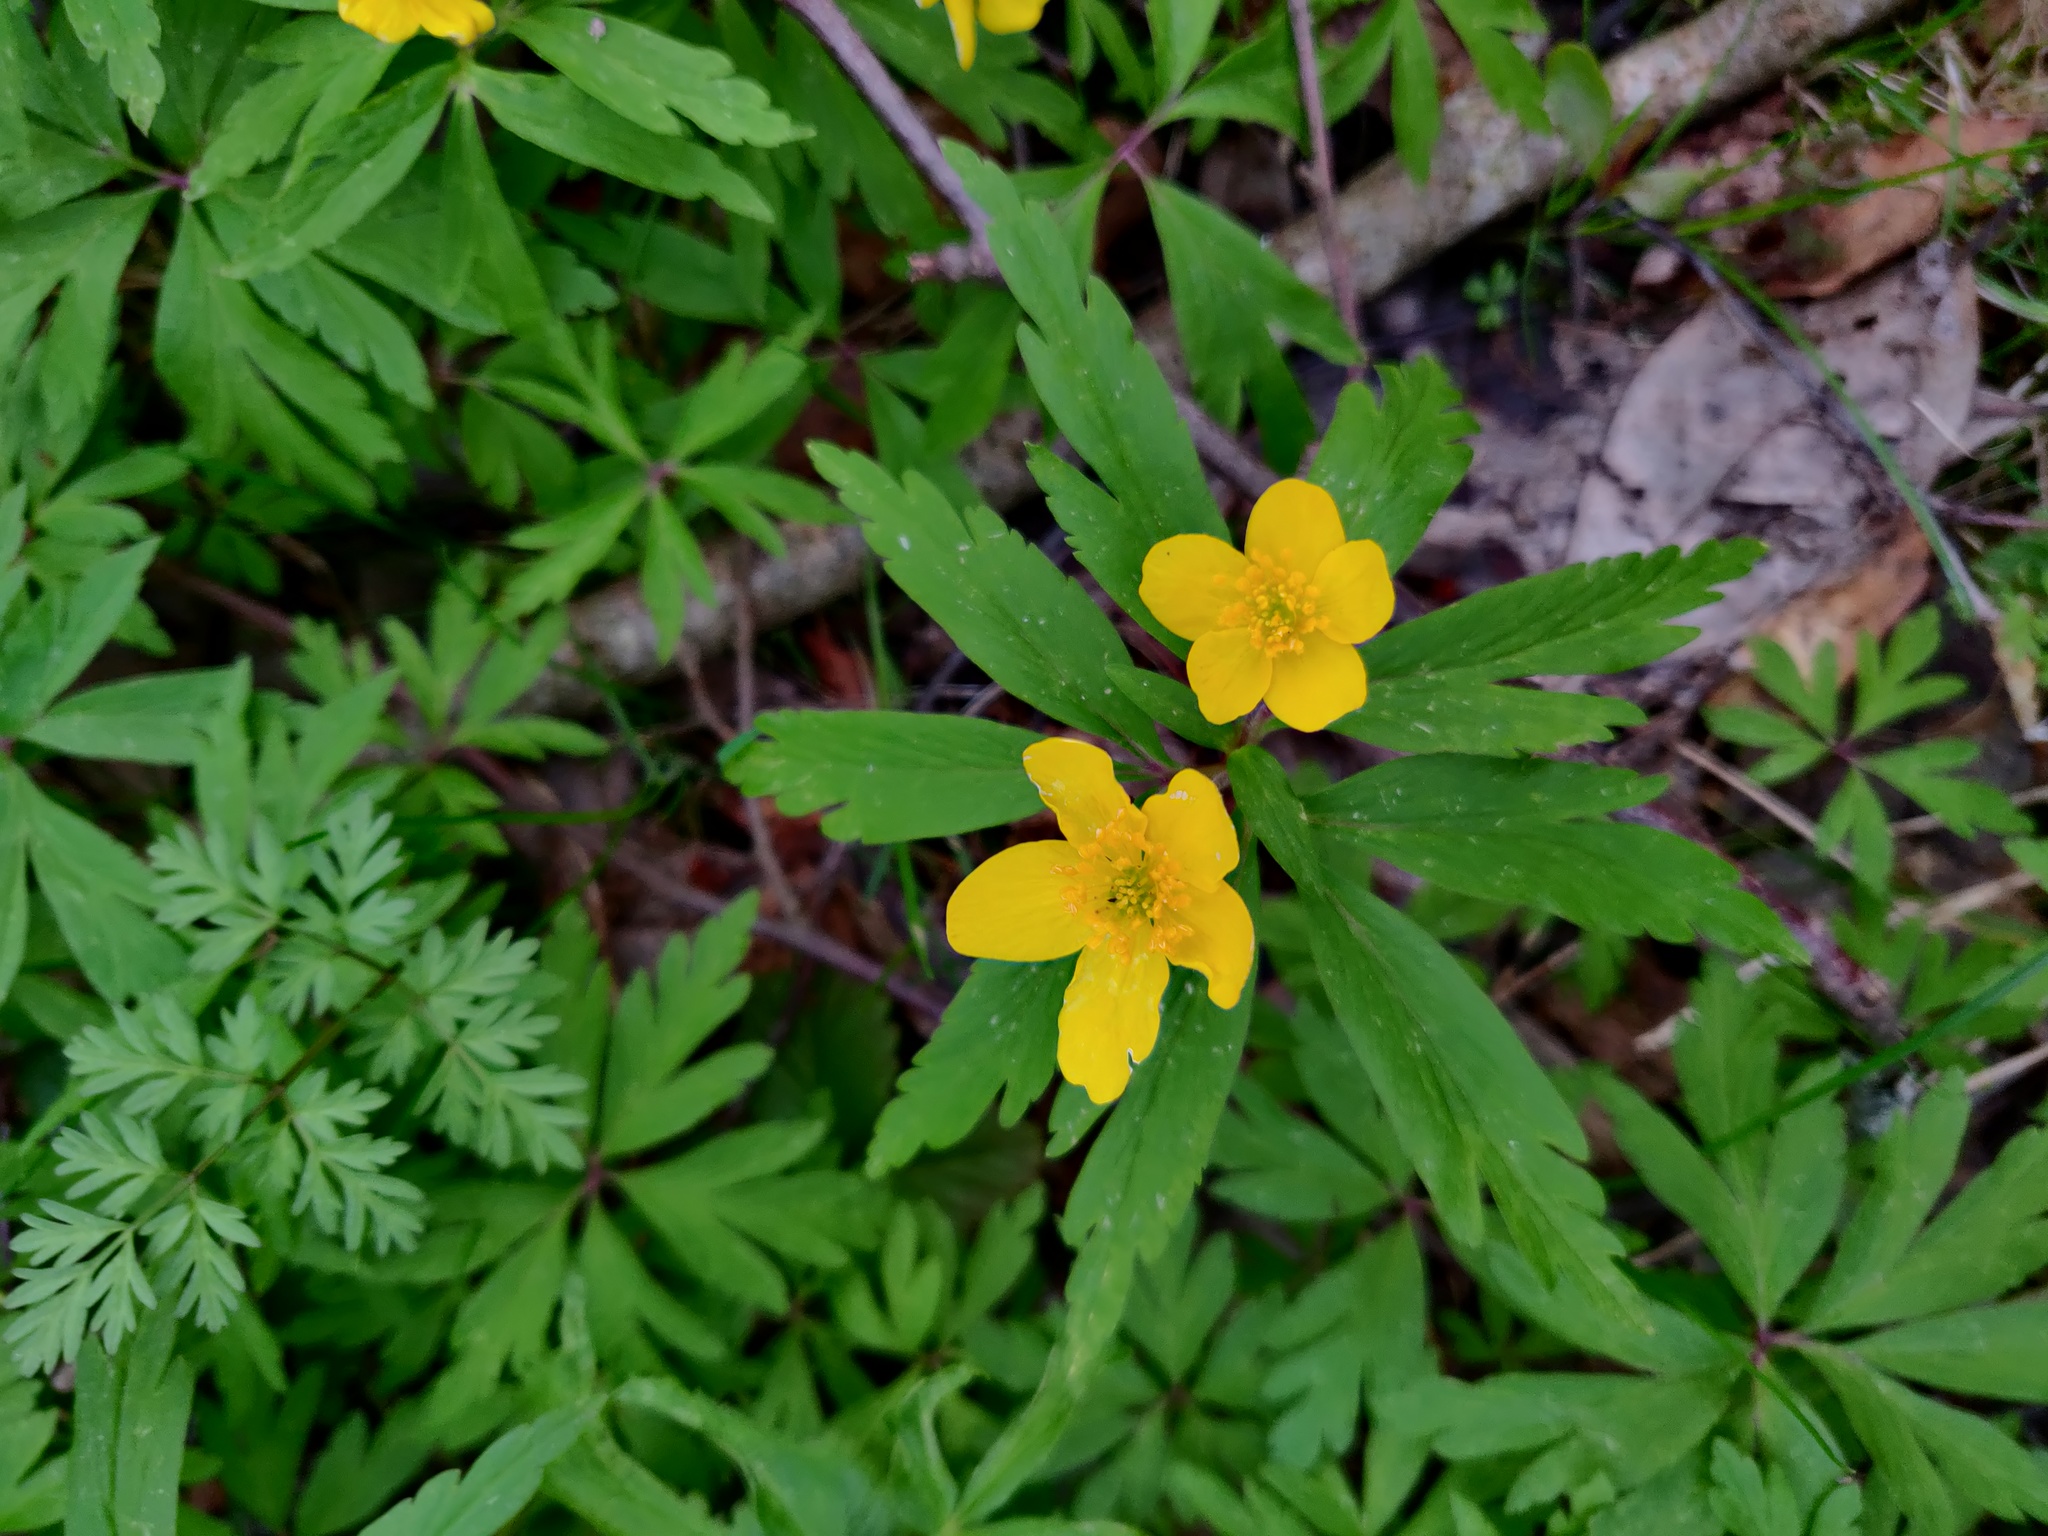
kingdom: Plantae
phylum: Tracheophyta
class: Magnoliopsida
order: Ranunculales
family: Ranunculaceae
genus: Anemone
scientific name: Anemone ranunculoides
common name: Yellow anemone
